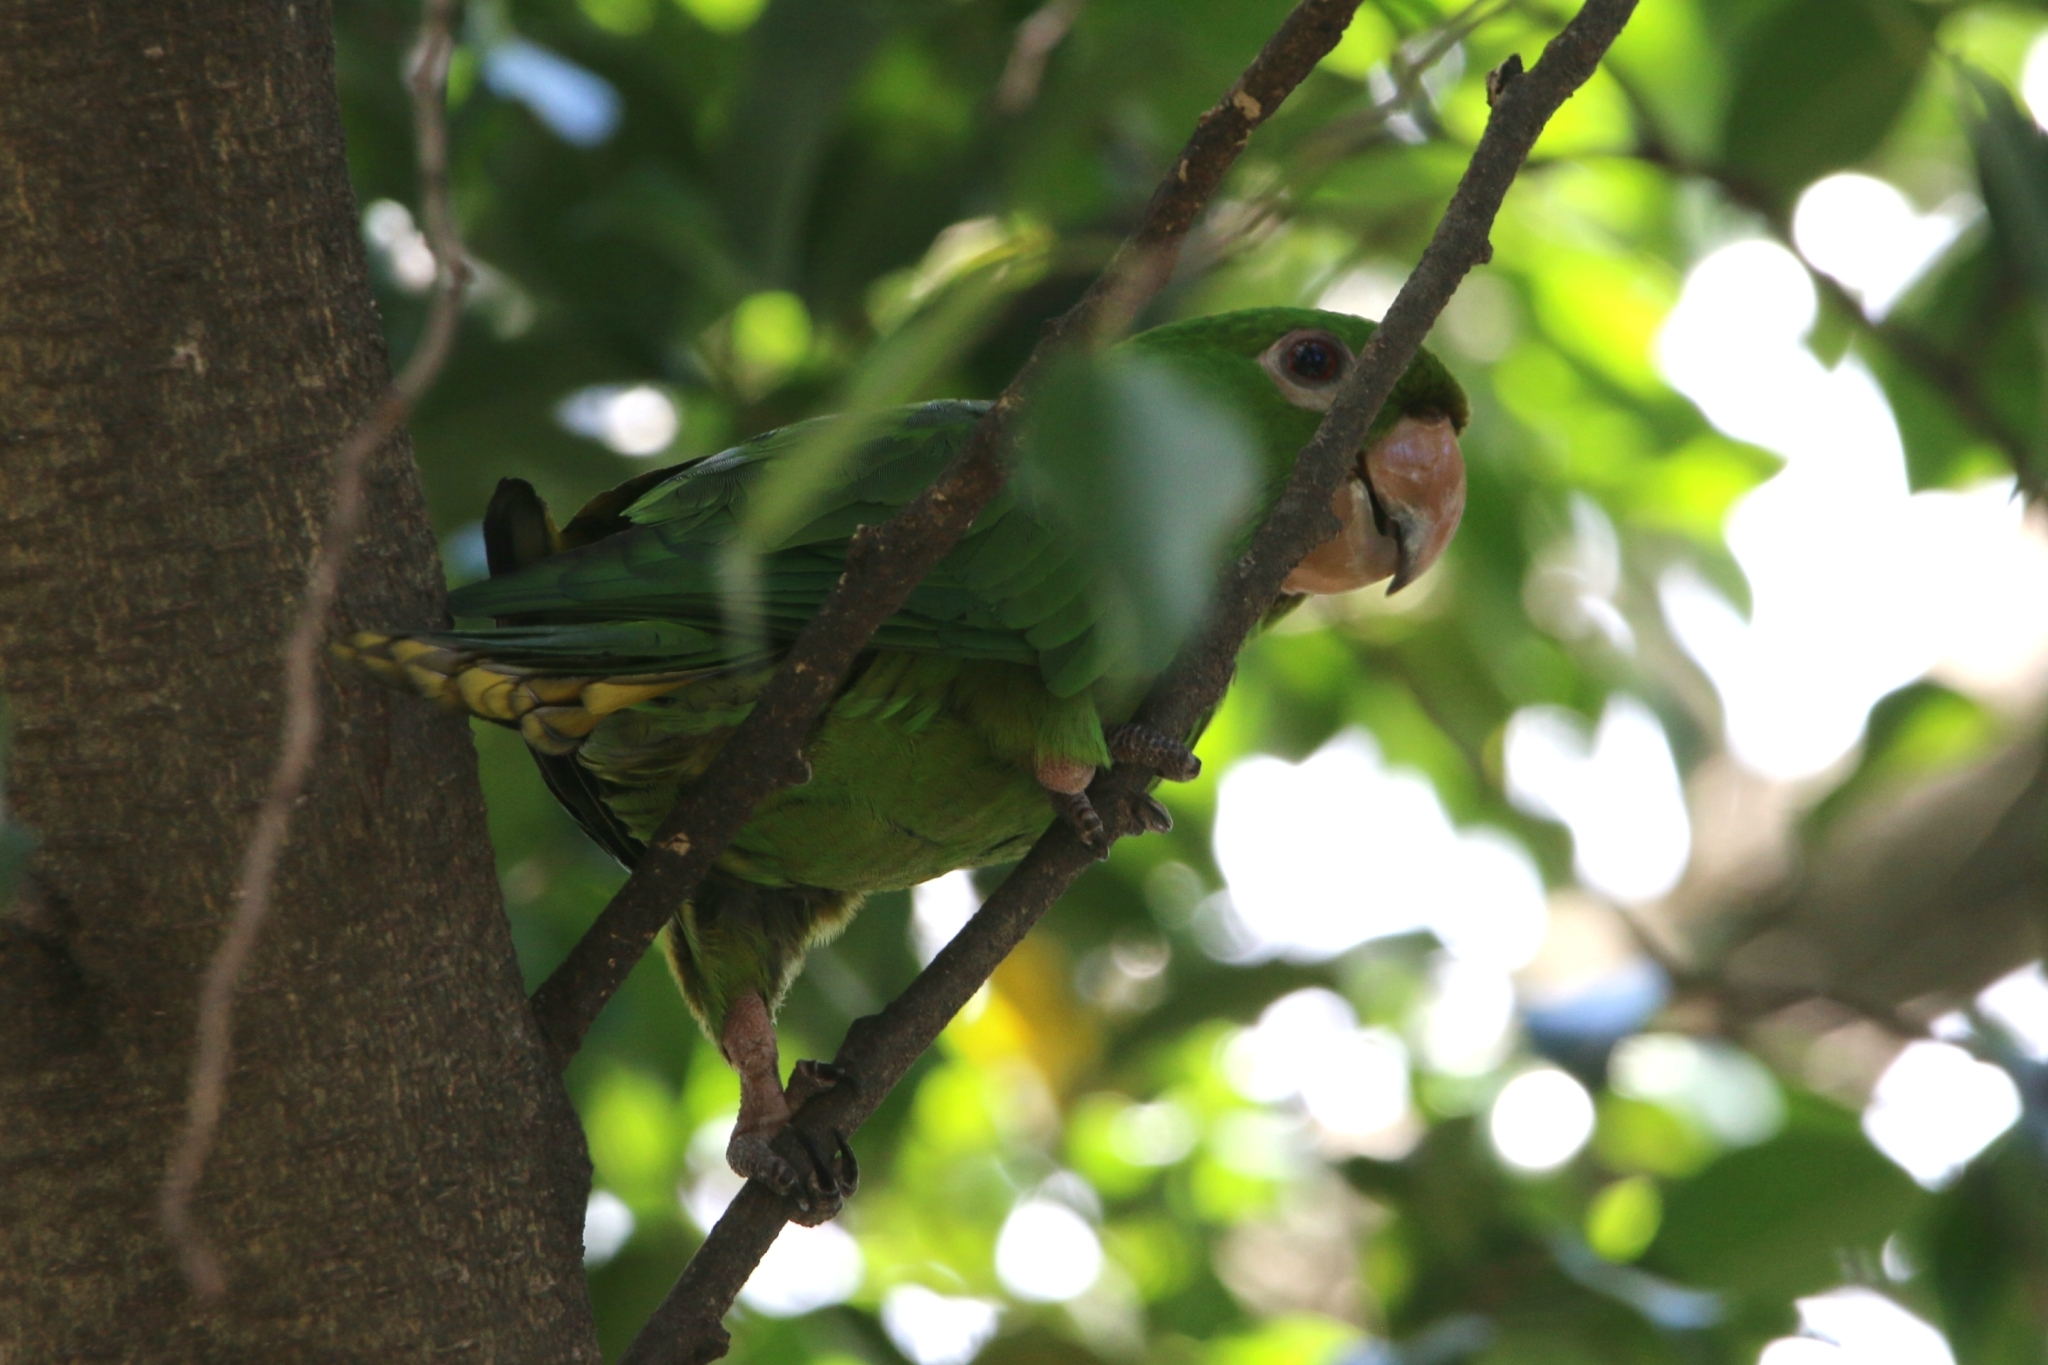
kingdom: Animalia
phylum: Chordata
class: Aves
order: Psittaciformes
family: Psittacidae
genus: Aratinga
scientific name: Aratinga leucophthalma
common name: White-eyed parakeet
